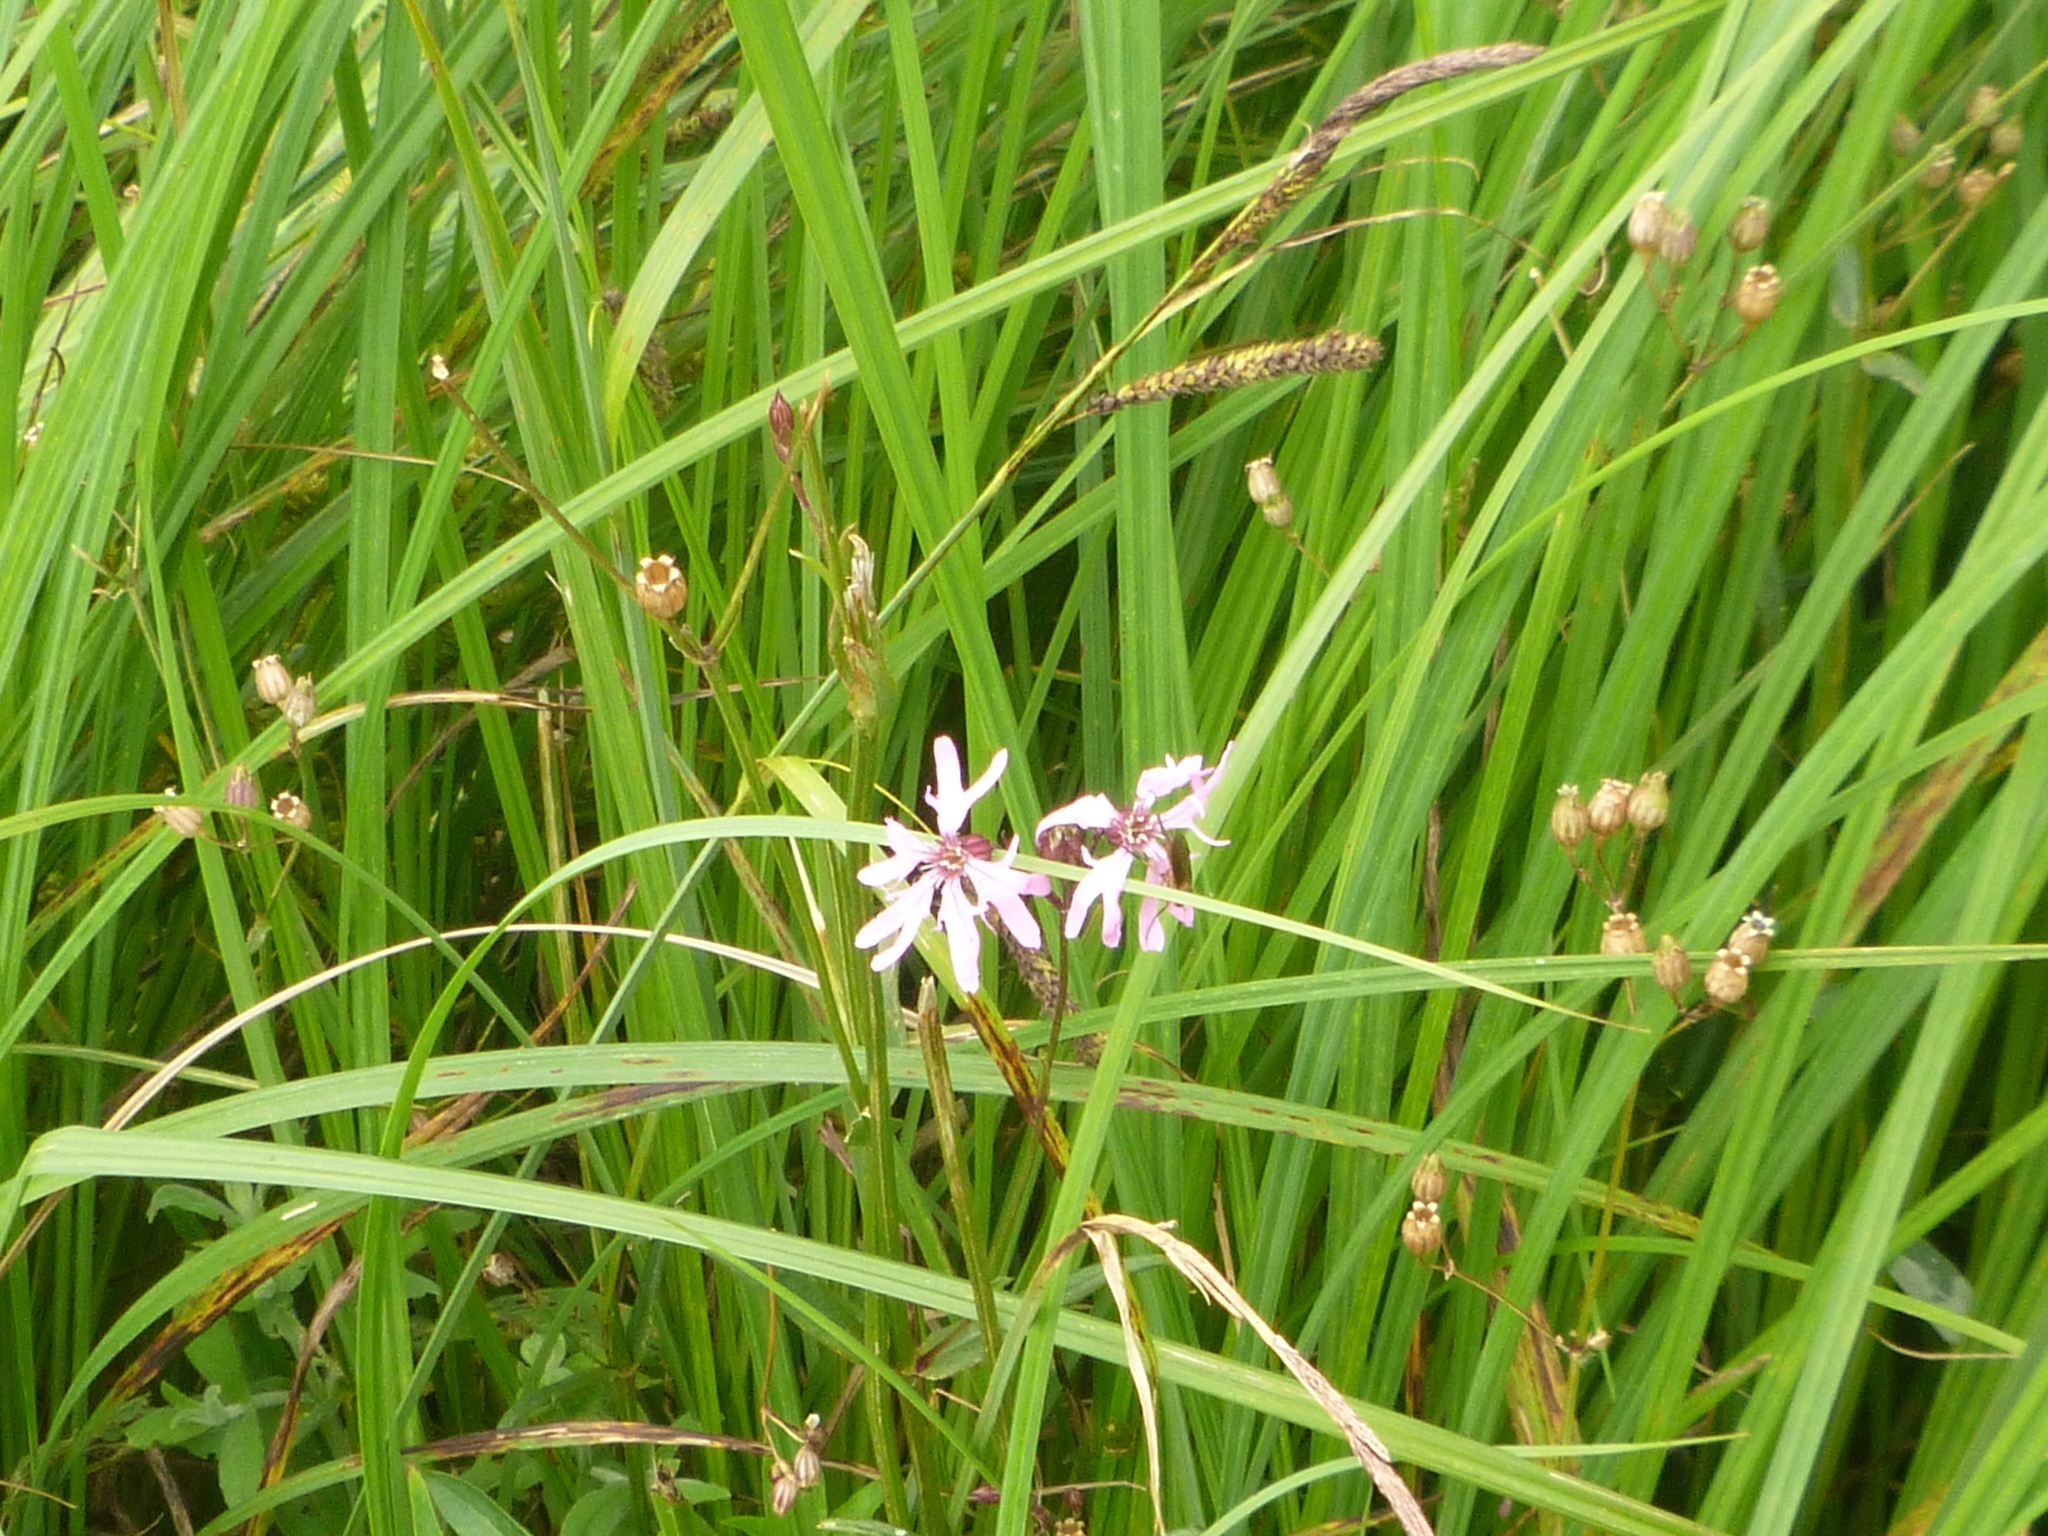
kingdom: Plantae
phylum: Tracheophyta
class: Magnoliopsida
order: Caryophyllales
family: Caryophyllaceae
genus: Silene
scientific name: Silene flos-cuculi
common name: Ragged-robin
